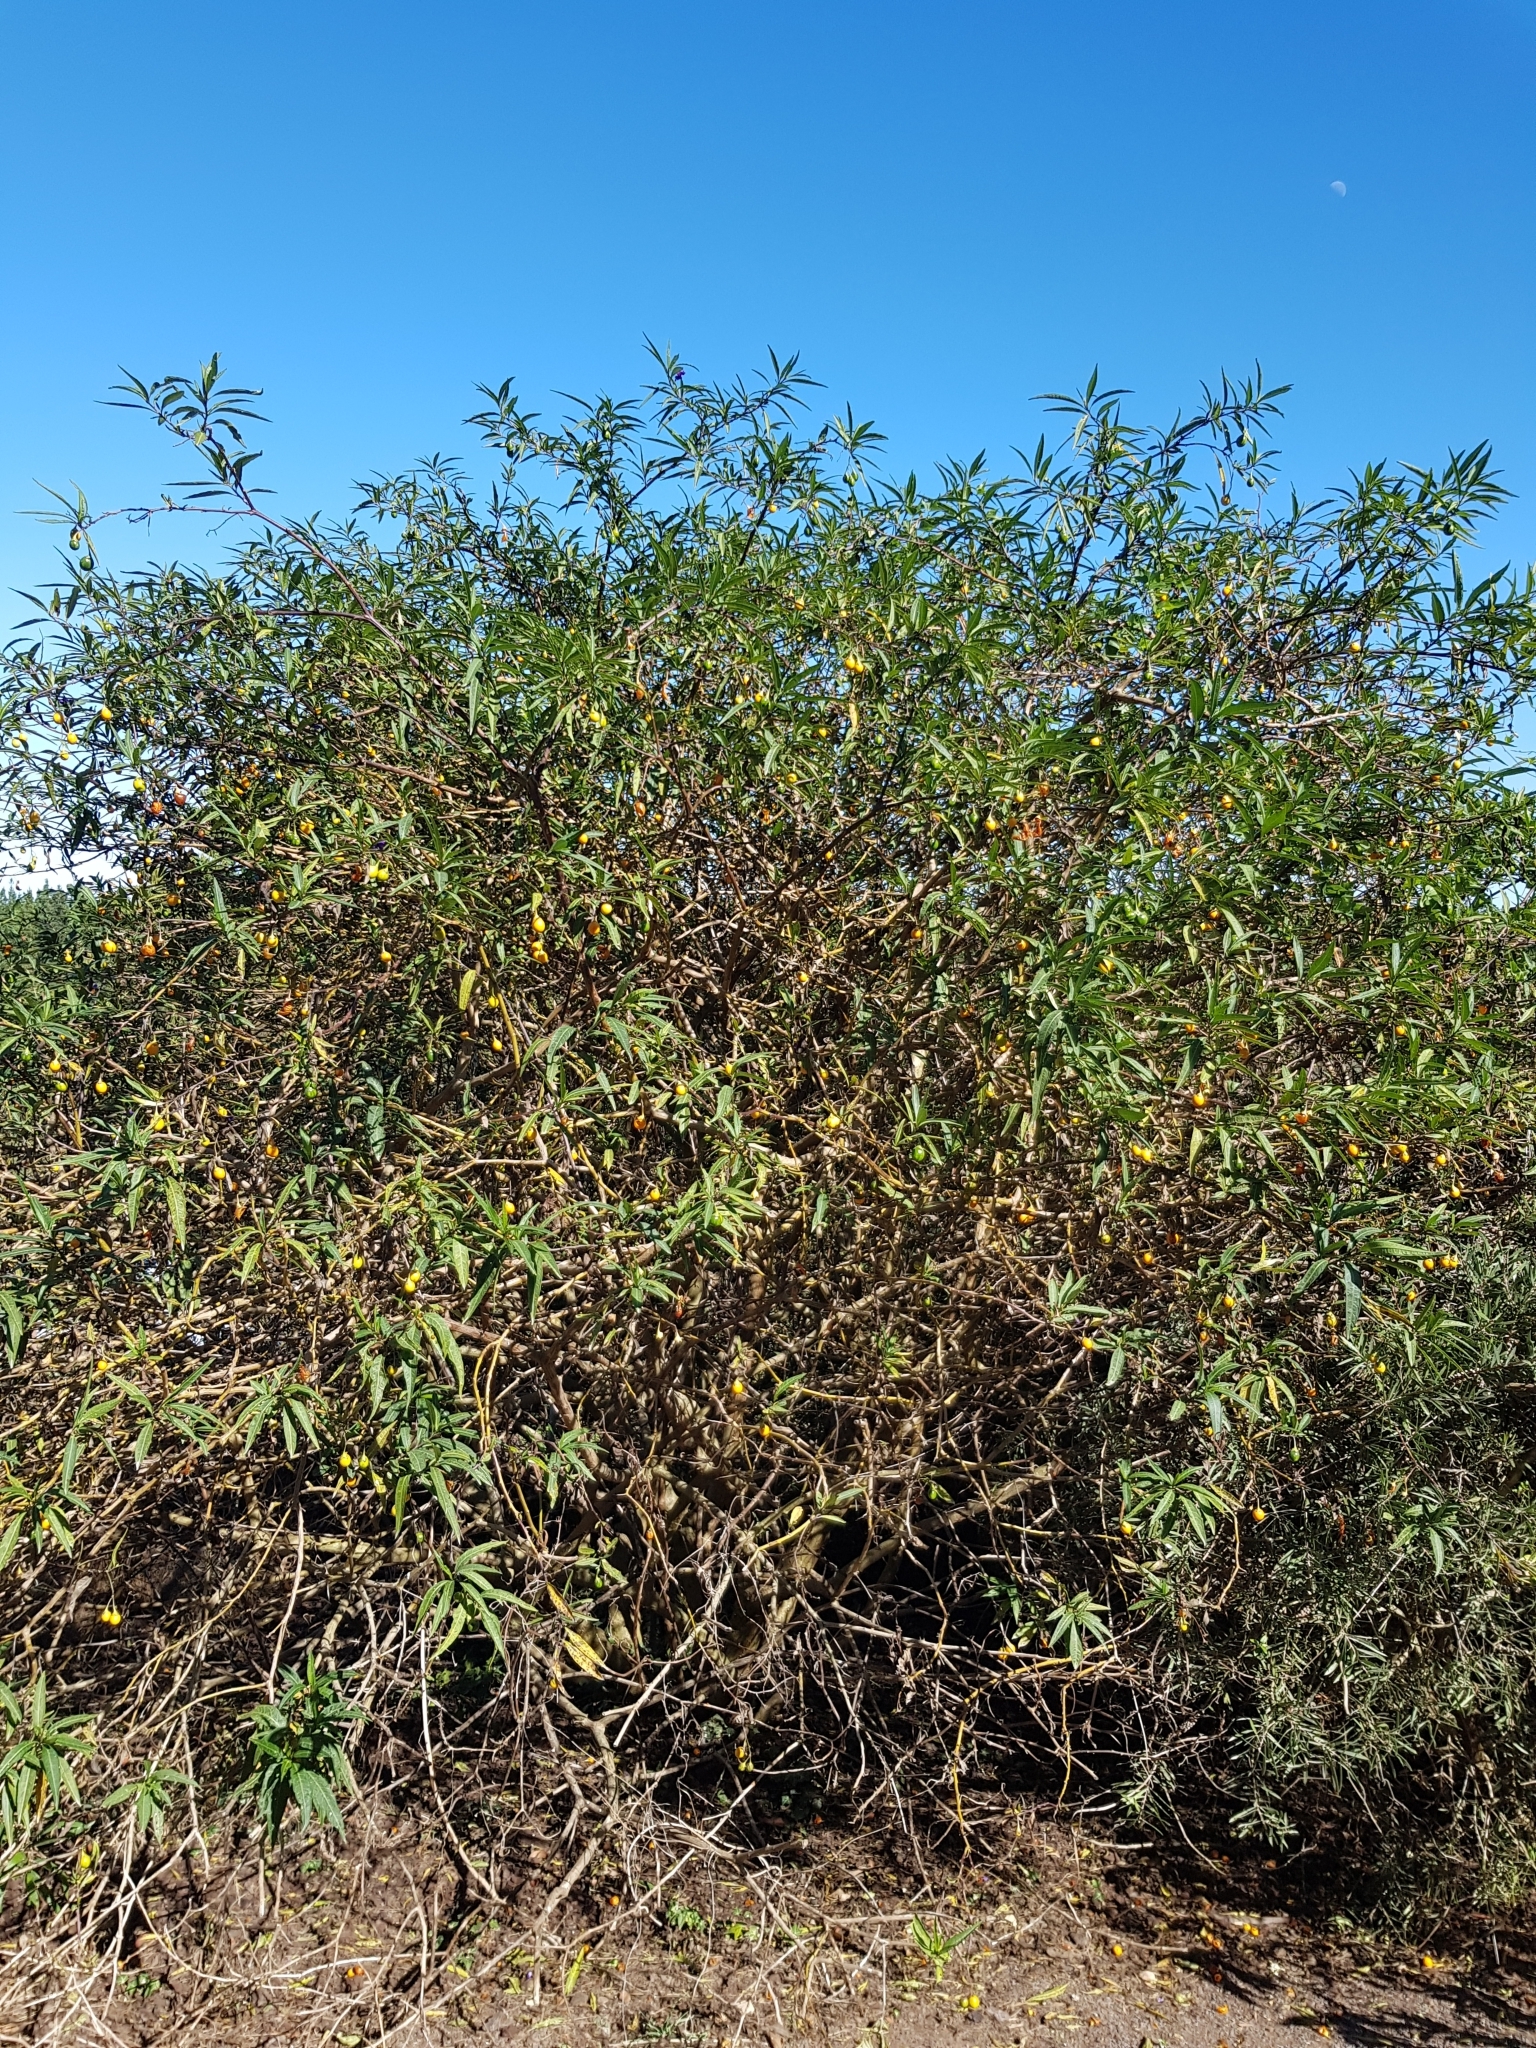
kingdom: Plantae
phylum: Tracheophyta
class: Magnoliopsida
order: Solanales
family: Solanaceae
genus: Solanum
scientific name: Solanum laciniatum
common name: Kangaroo-apple
